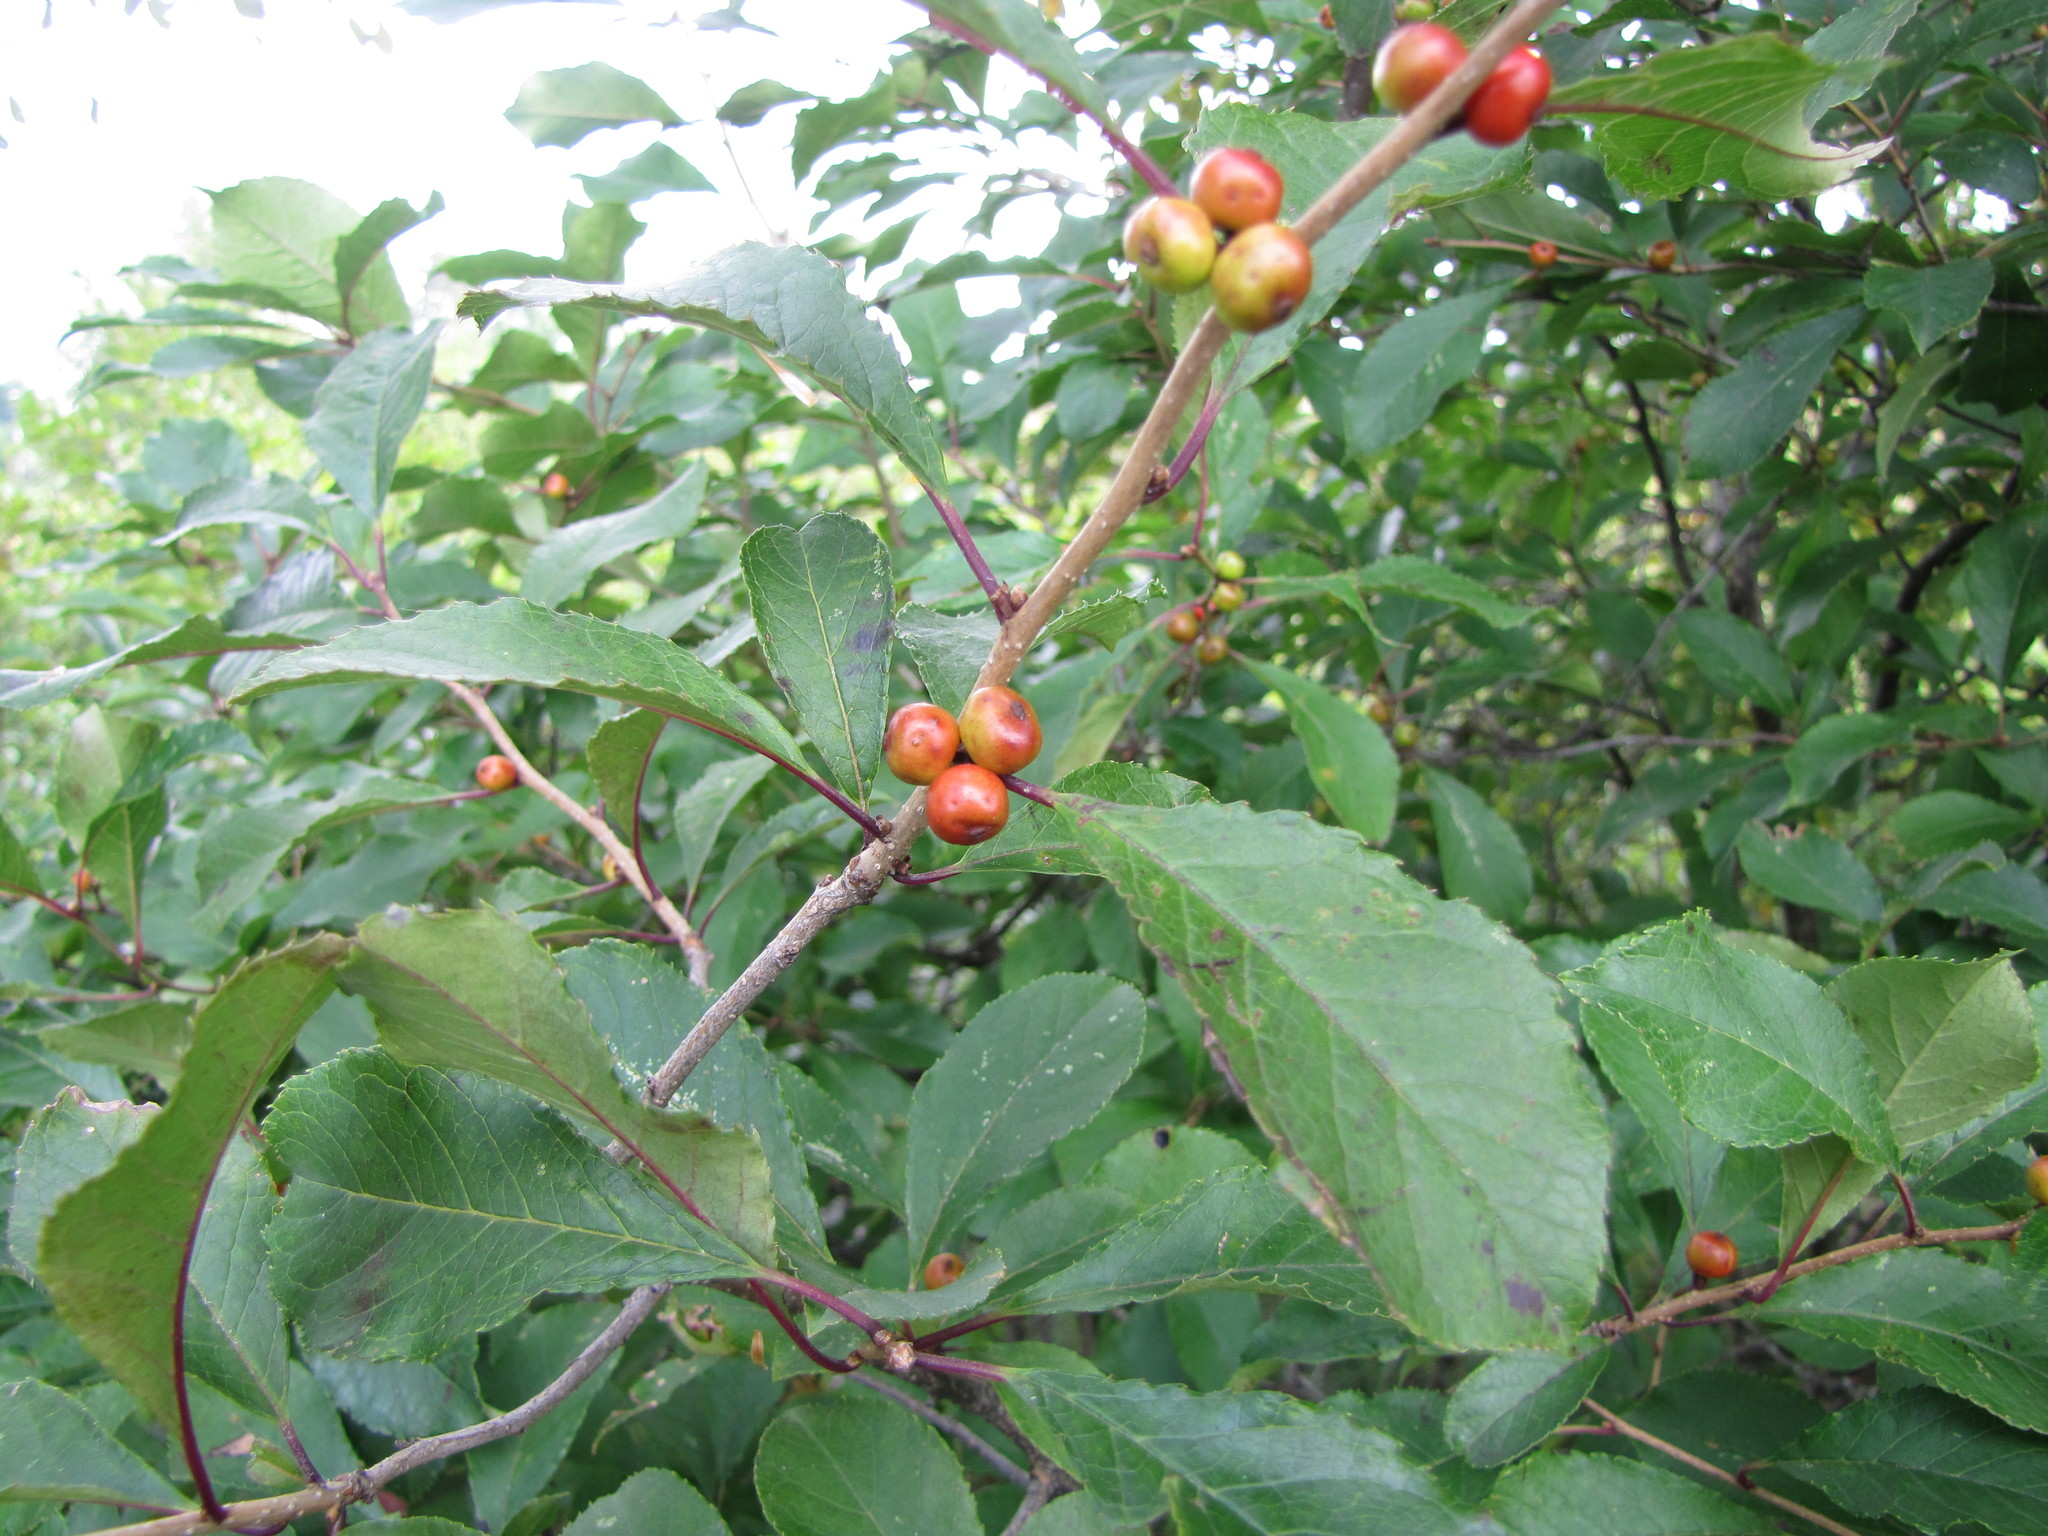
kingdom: Plantae
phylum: Tracheophyta
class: Magnoliopsida
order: Aquifoliales
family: Aquifoliaceae
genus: Ilex
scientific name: Ilex verticillata
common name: Virginia winterberry
